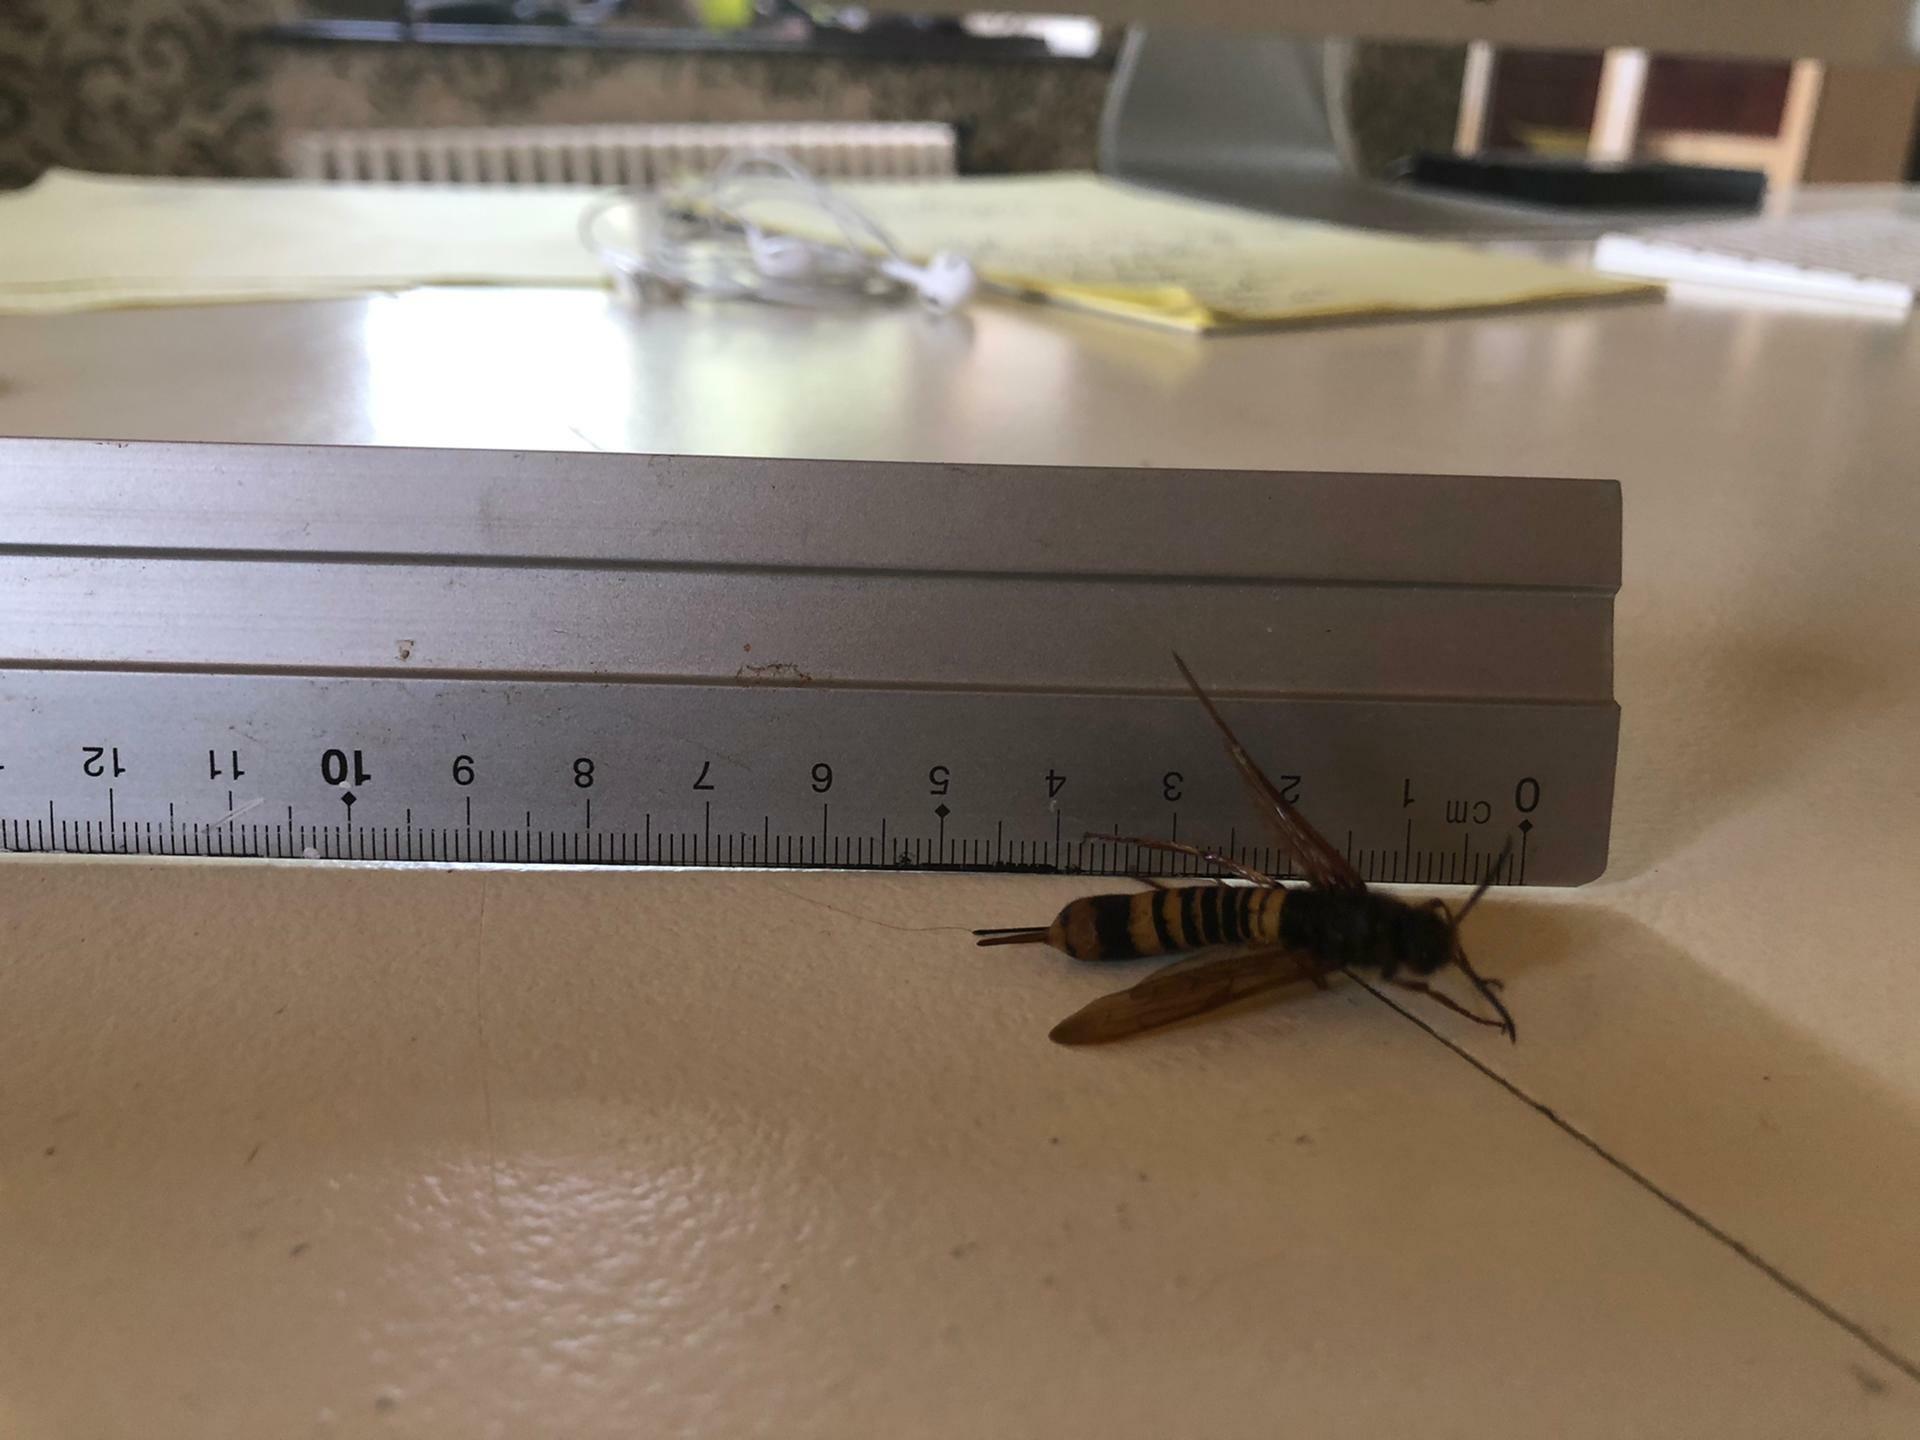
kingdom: Animalia
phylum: Arthropoda
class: Insecta
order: Hymenoptera
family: Siricidae
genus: Tremex
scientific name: Tremex fuscicornis
